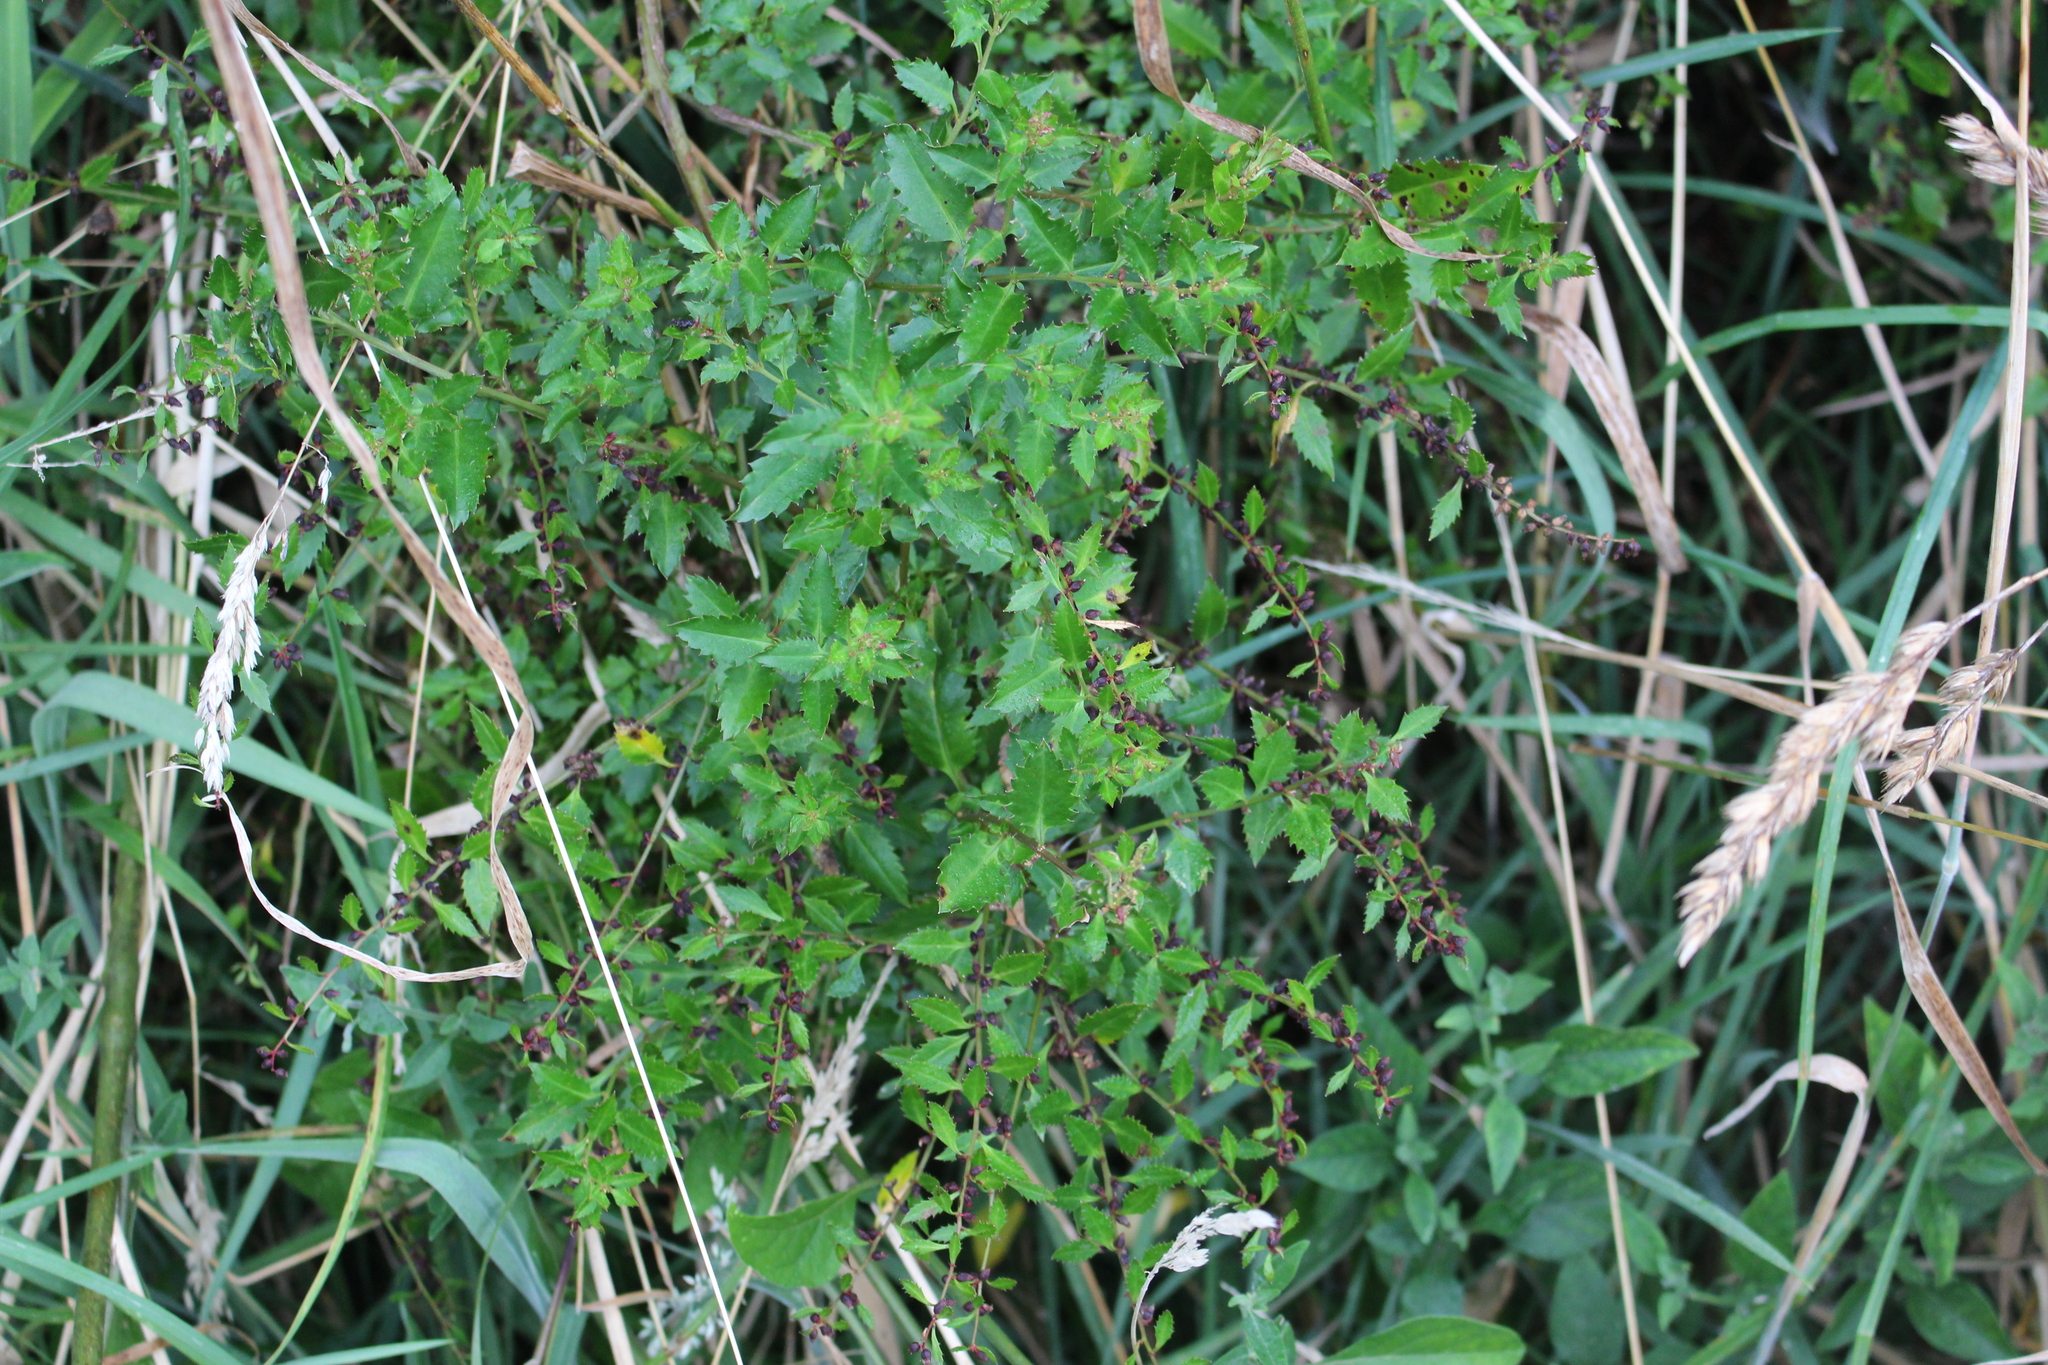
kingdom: Plantae
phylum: Tracheophyta
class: Magnoliopsida
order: Saxifragales
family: Haloragaceae
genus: Haloragis
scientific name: Haloragis erecta
